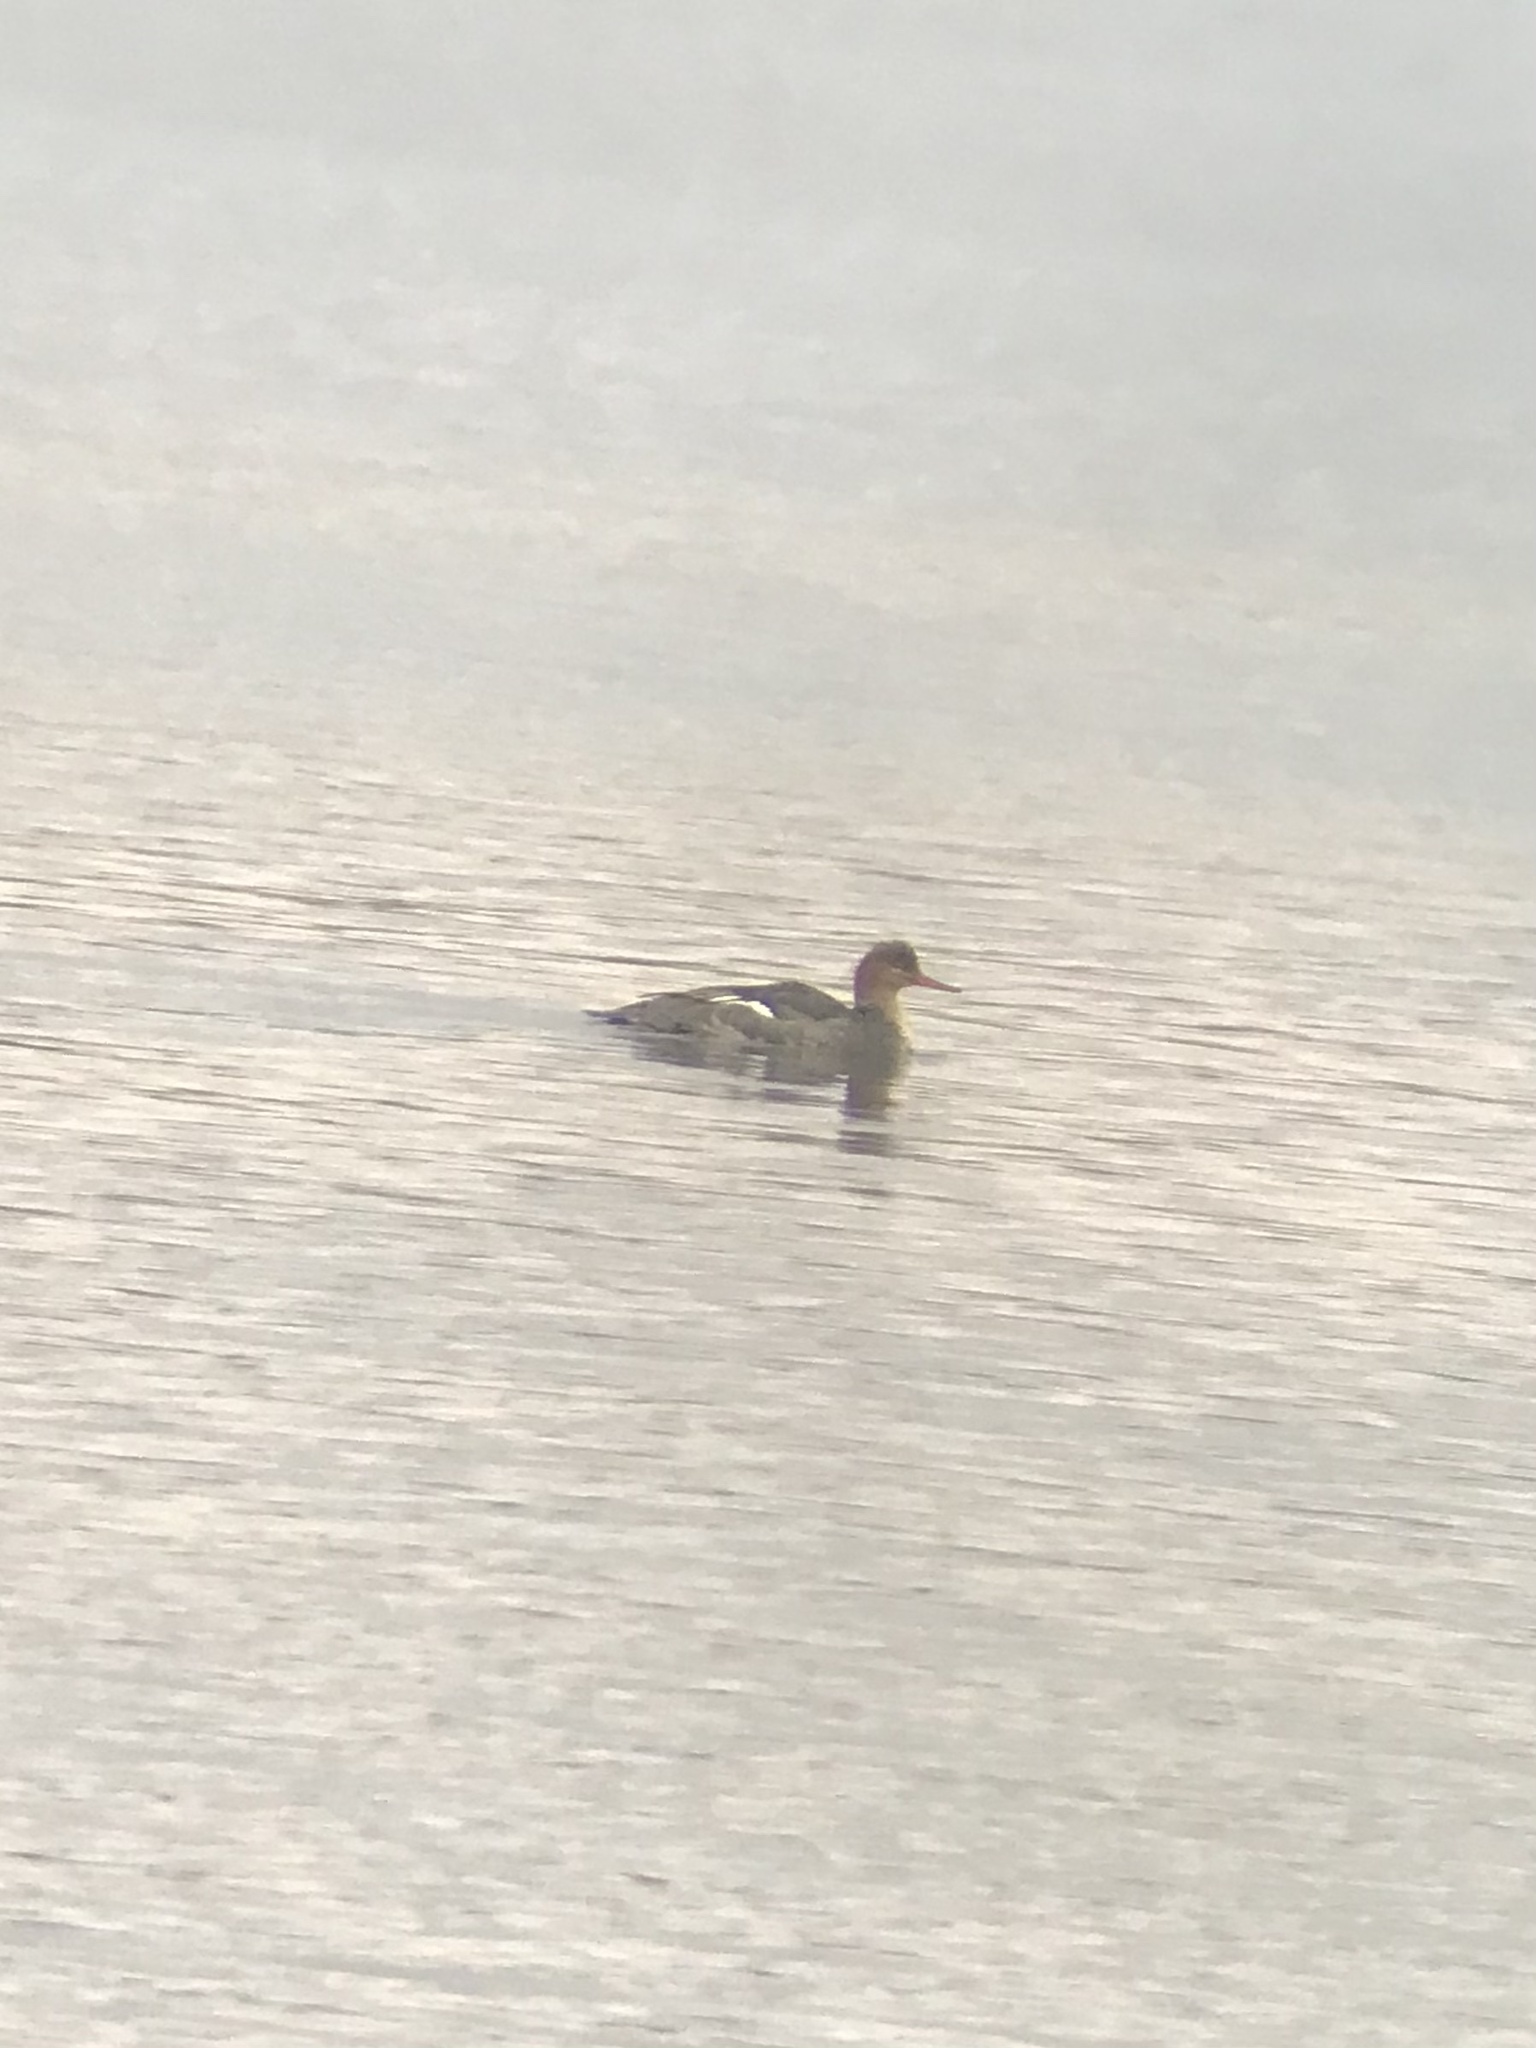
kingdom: Animalia
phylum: Chordata
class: Aves
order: Anseriformes
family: Anatidae
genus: Mergus
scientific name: Mergus serrator
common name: Red-breasted merganser
